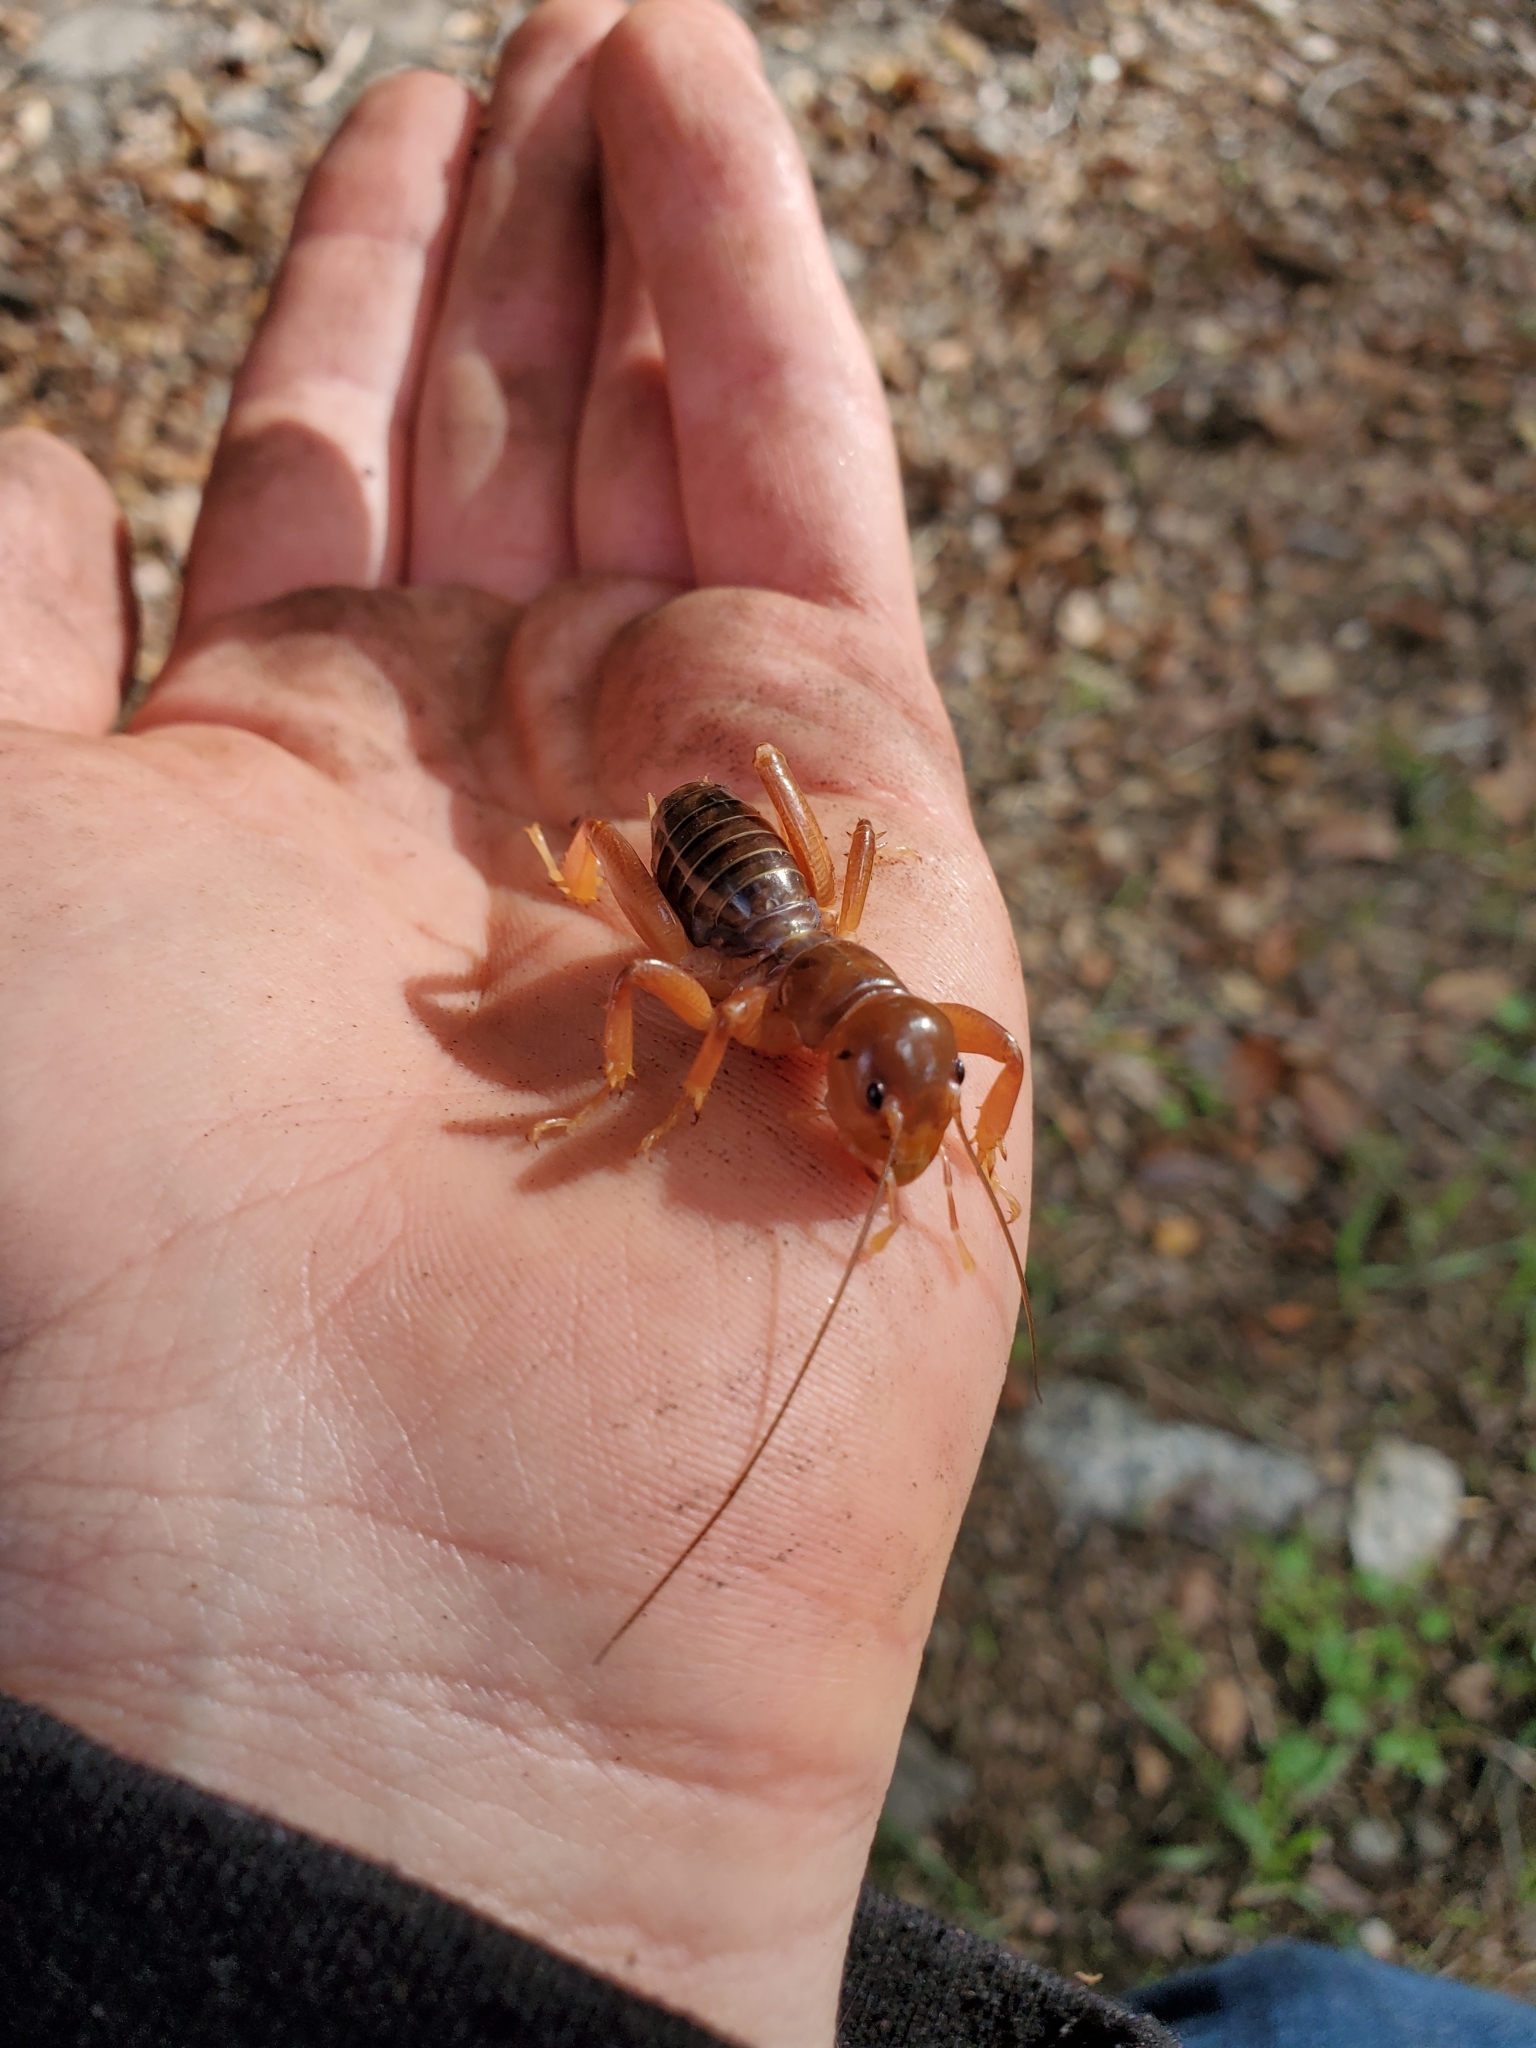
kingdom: Animalia
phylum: Arthropoda
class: Insecta
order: Orthoptera
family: Stenopelmatidae
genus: Ammopelmatus
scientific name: Ammopelmatus
